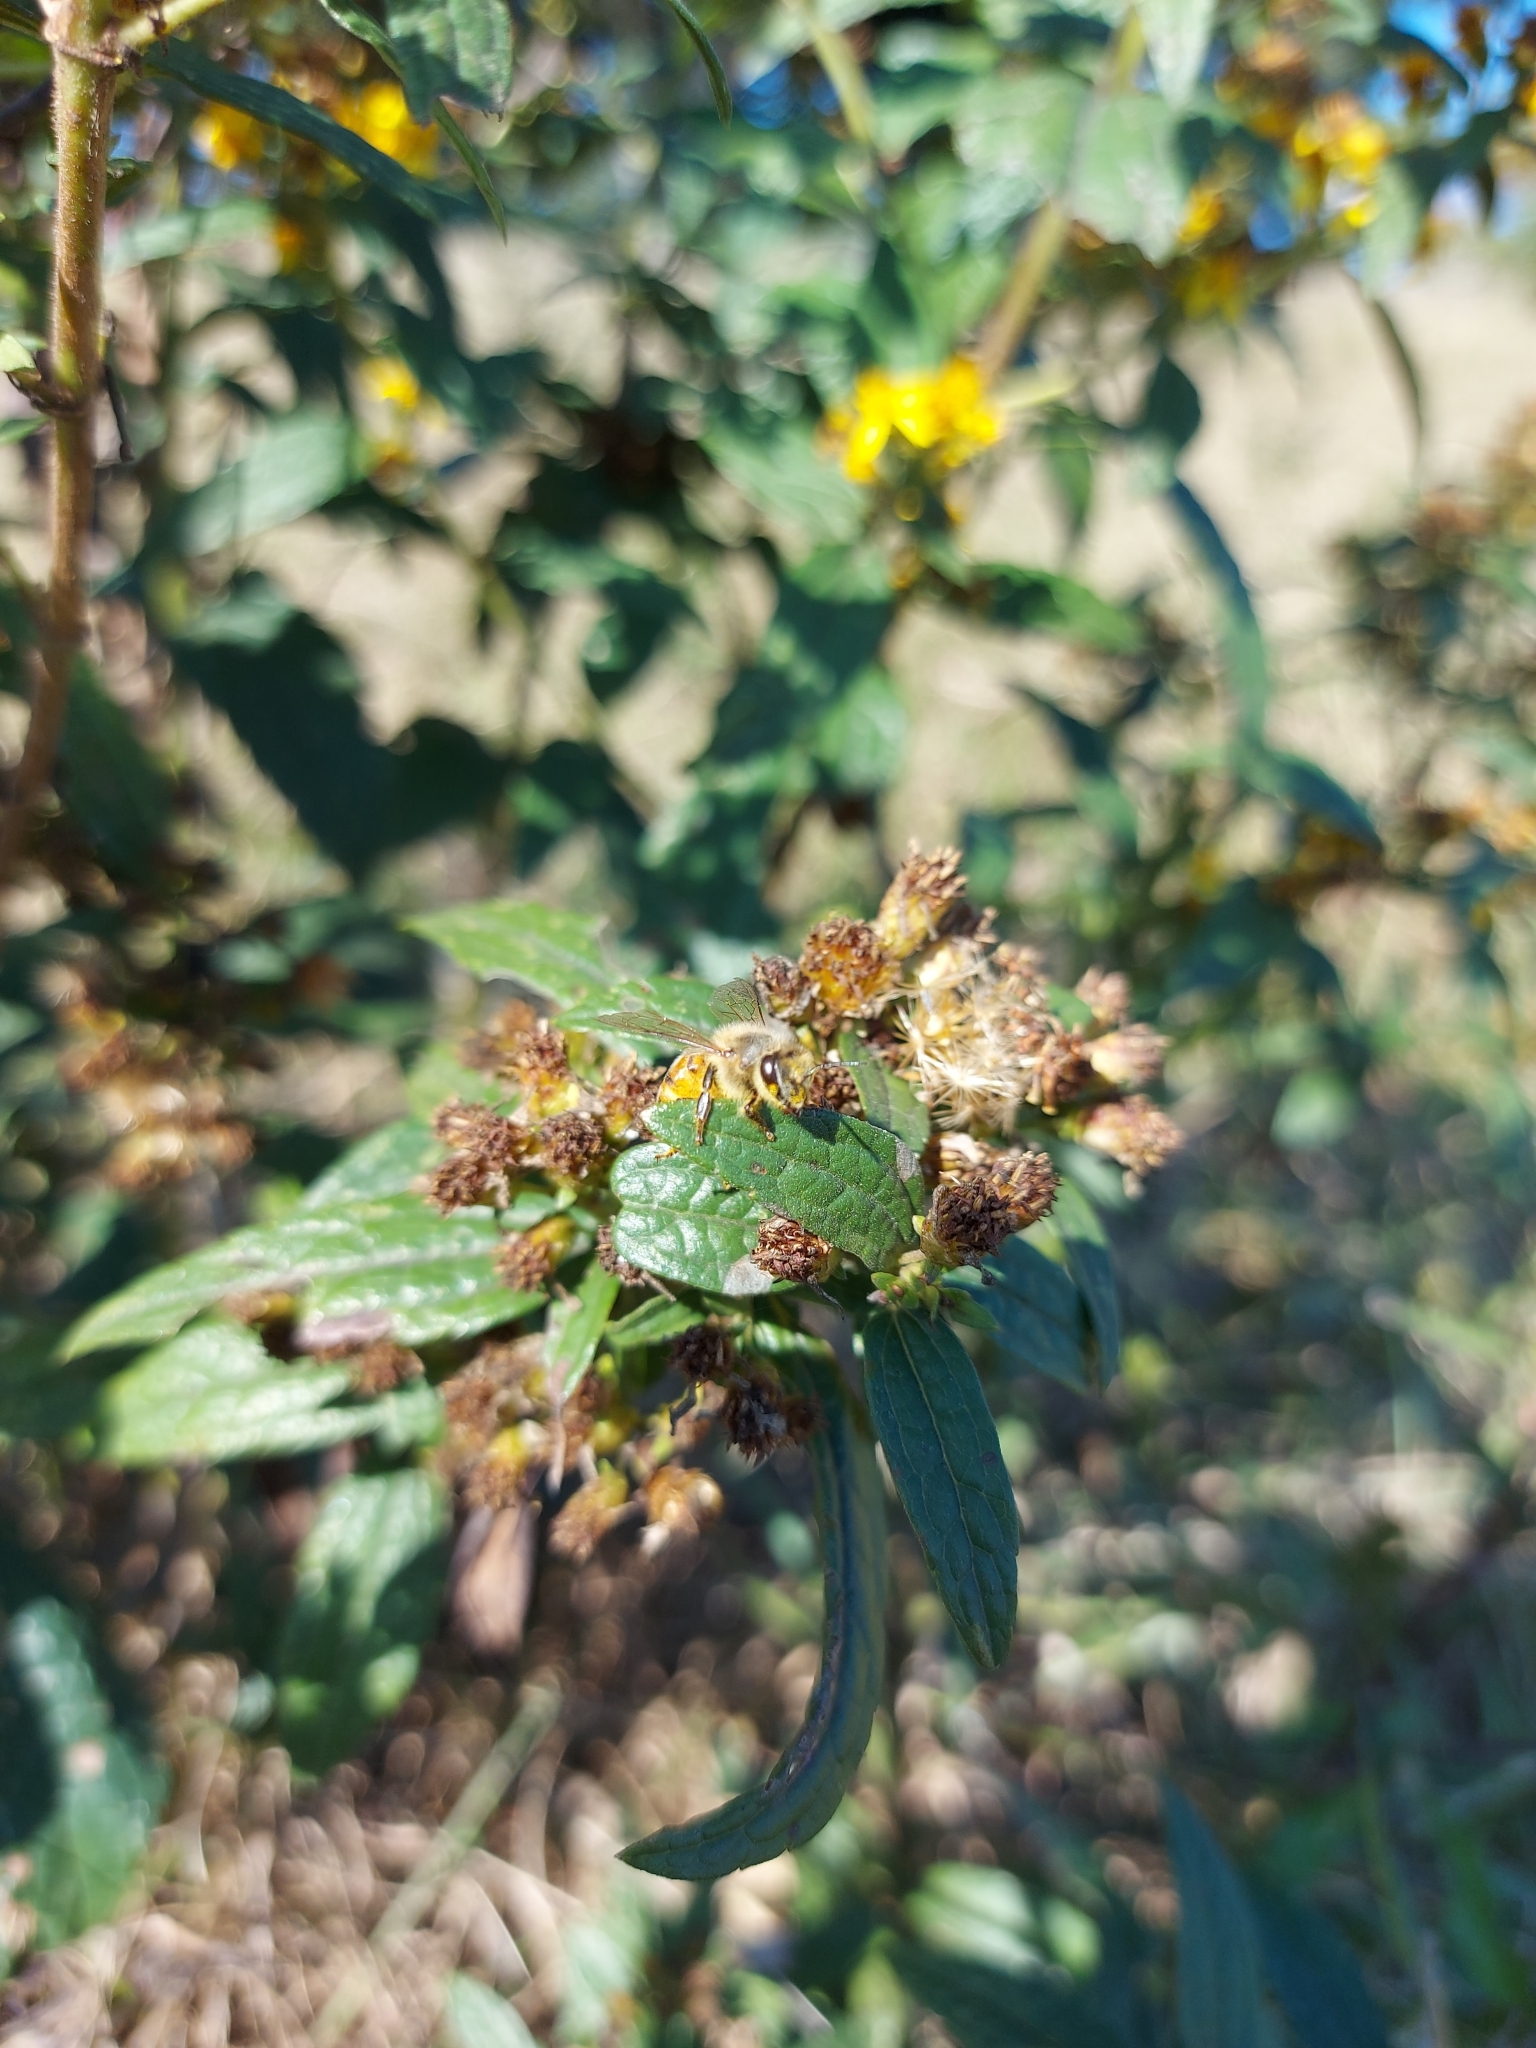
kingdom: Animalia
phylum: Arthropoda
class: Insecta
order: Hymenoptera
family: Apidae
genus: Apis
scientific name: Apis mellifera
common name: Honey bee
